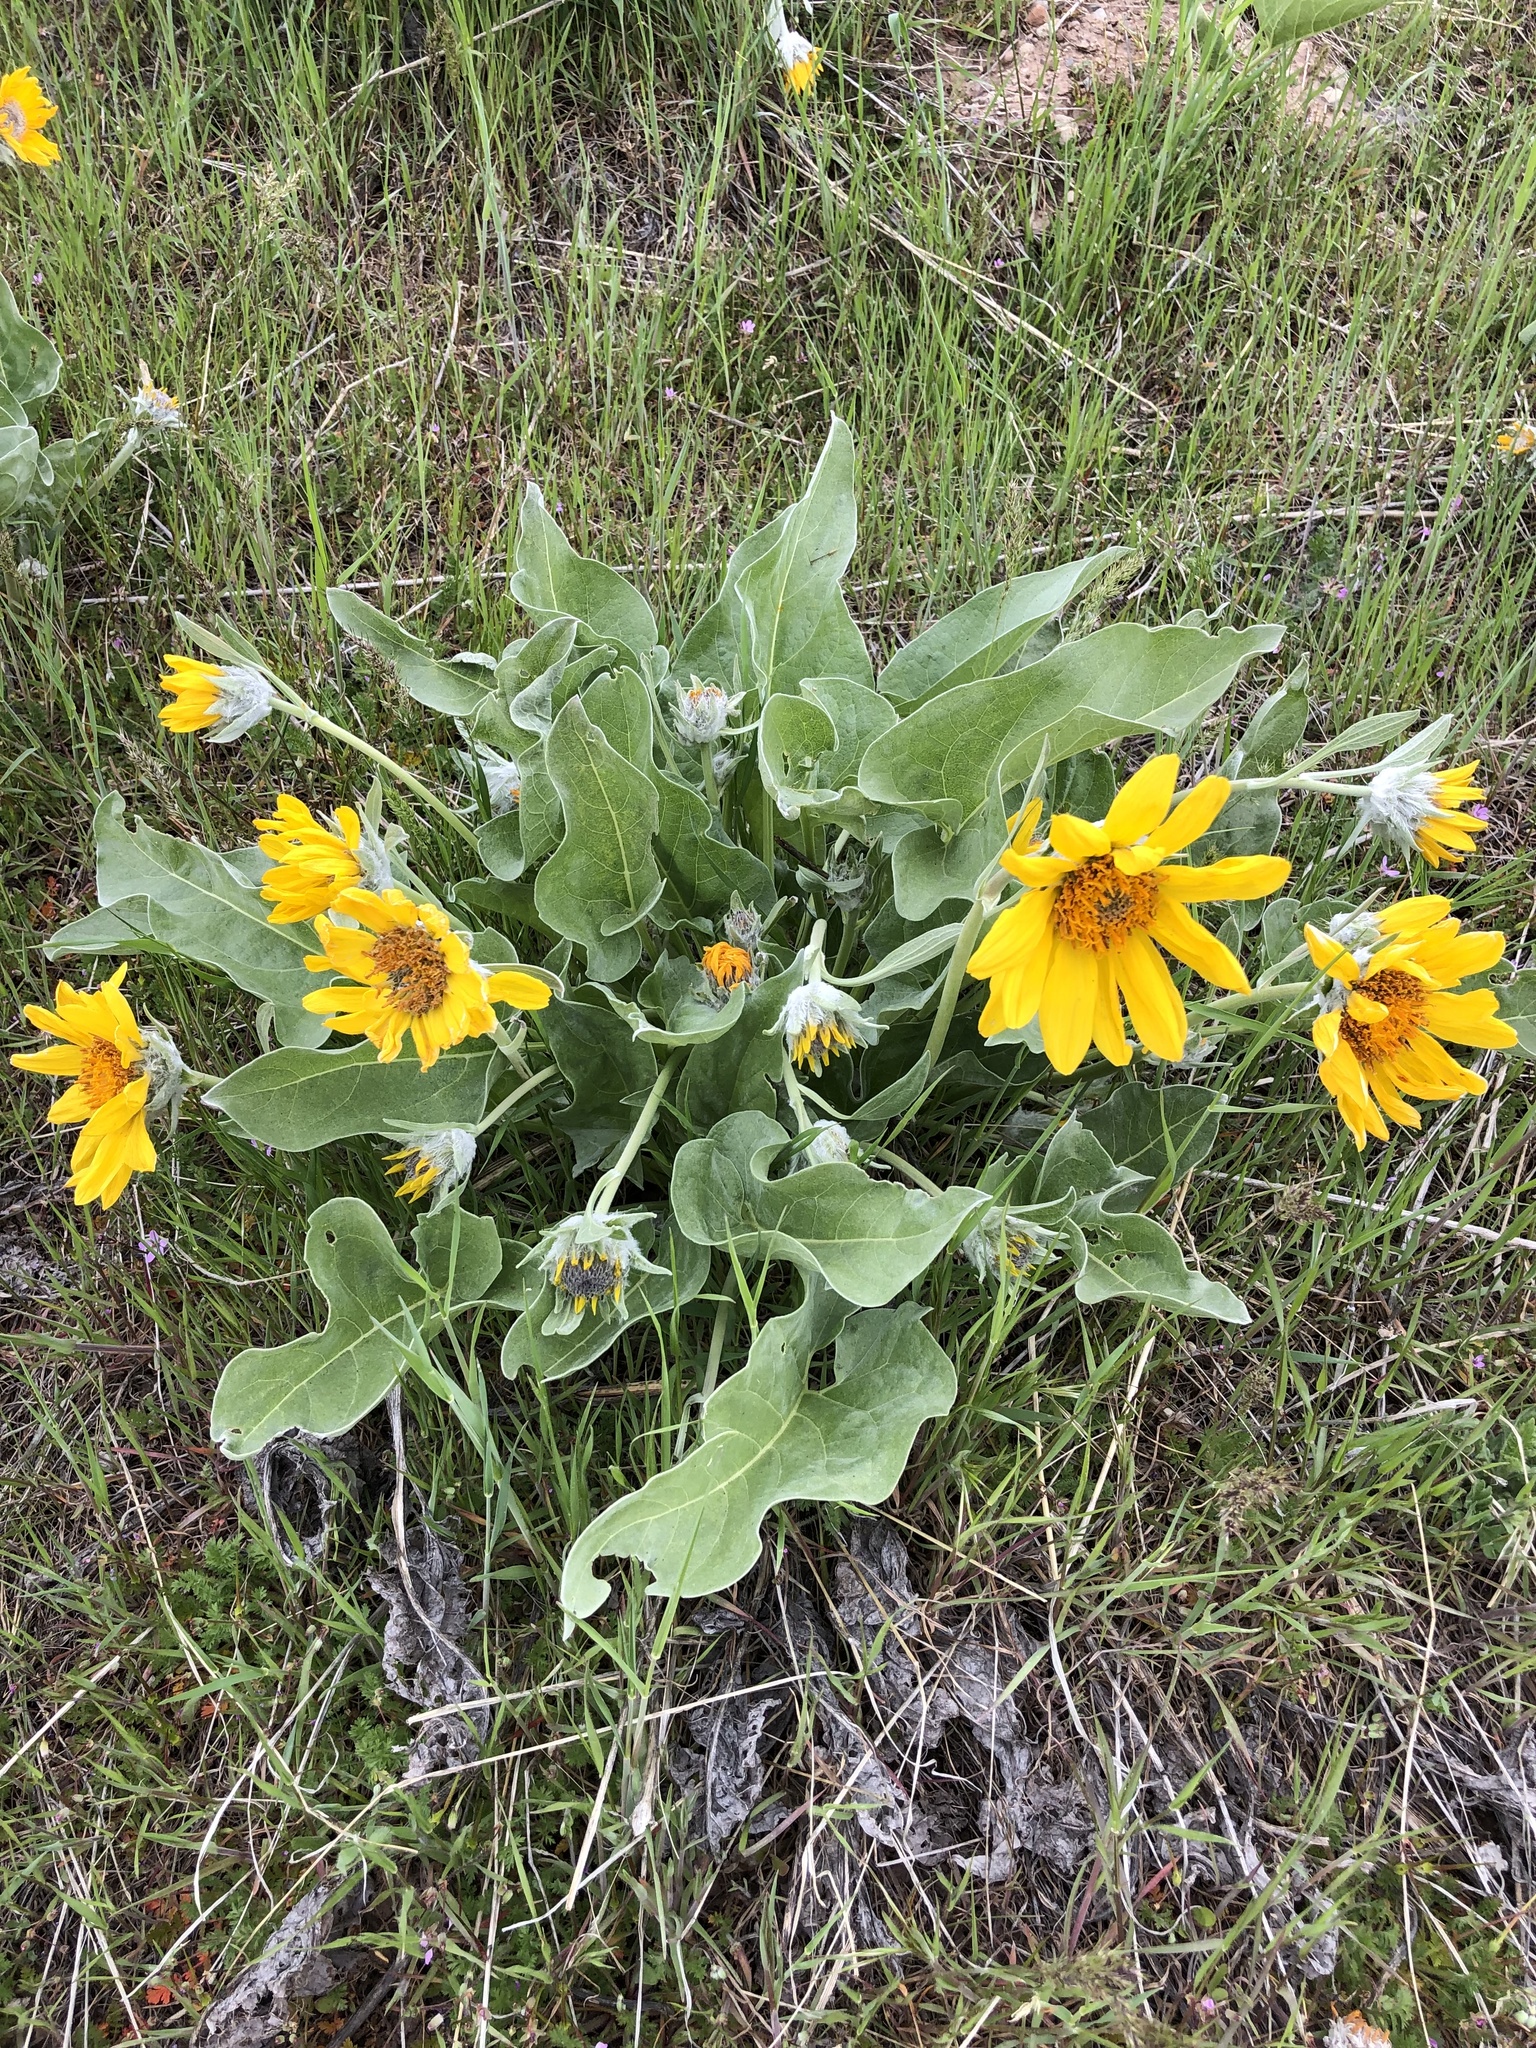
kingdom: Plantae
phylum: Tracheophyta
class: Magnoliopsida
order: Asterales
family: Asteraceae
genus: Wyethia
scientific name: Wyethia sagittata
